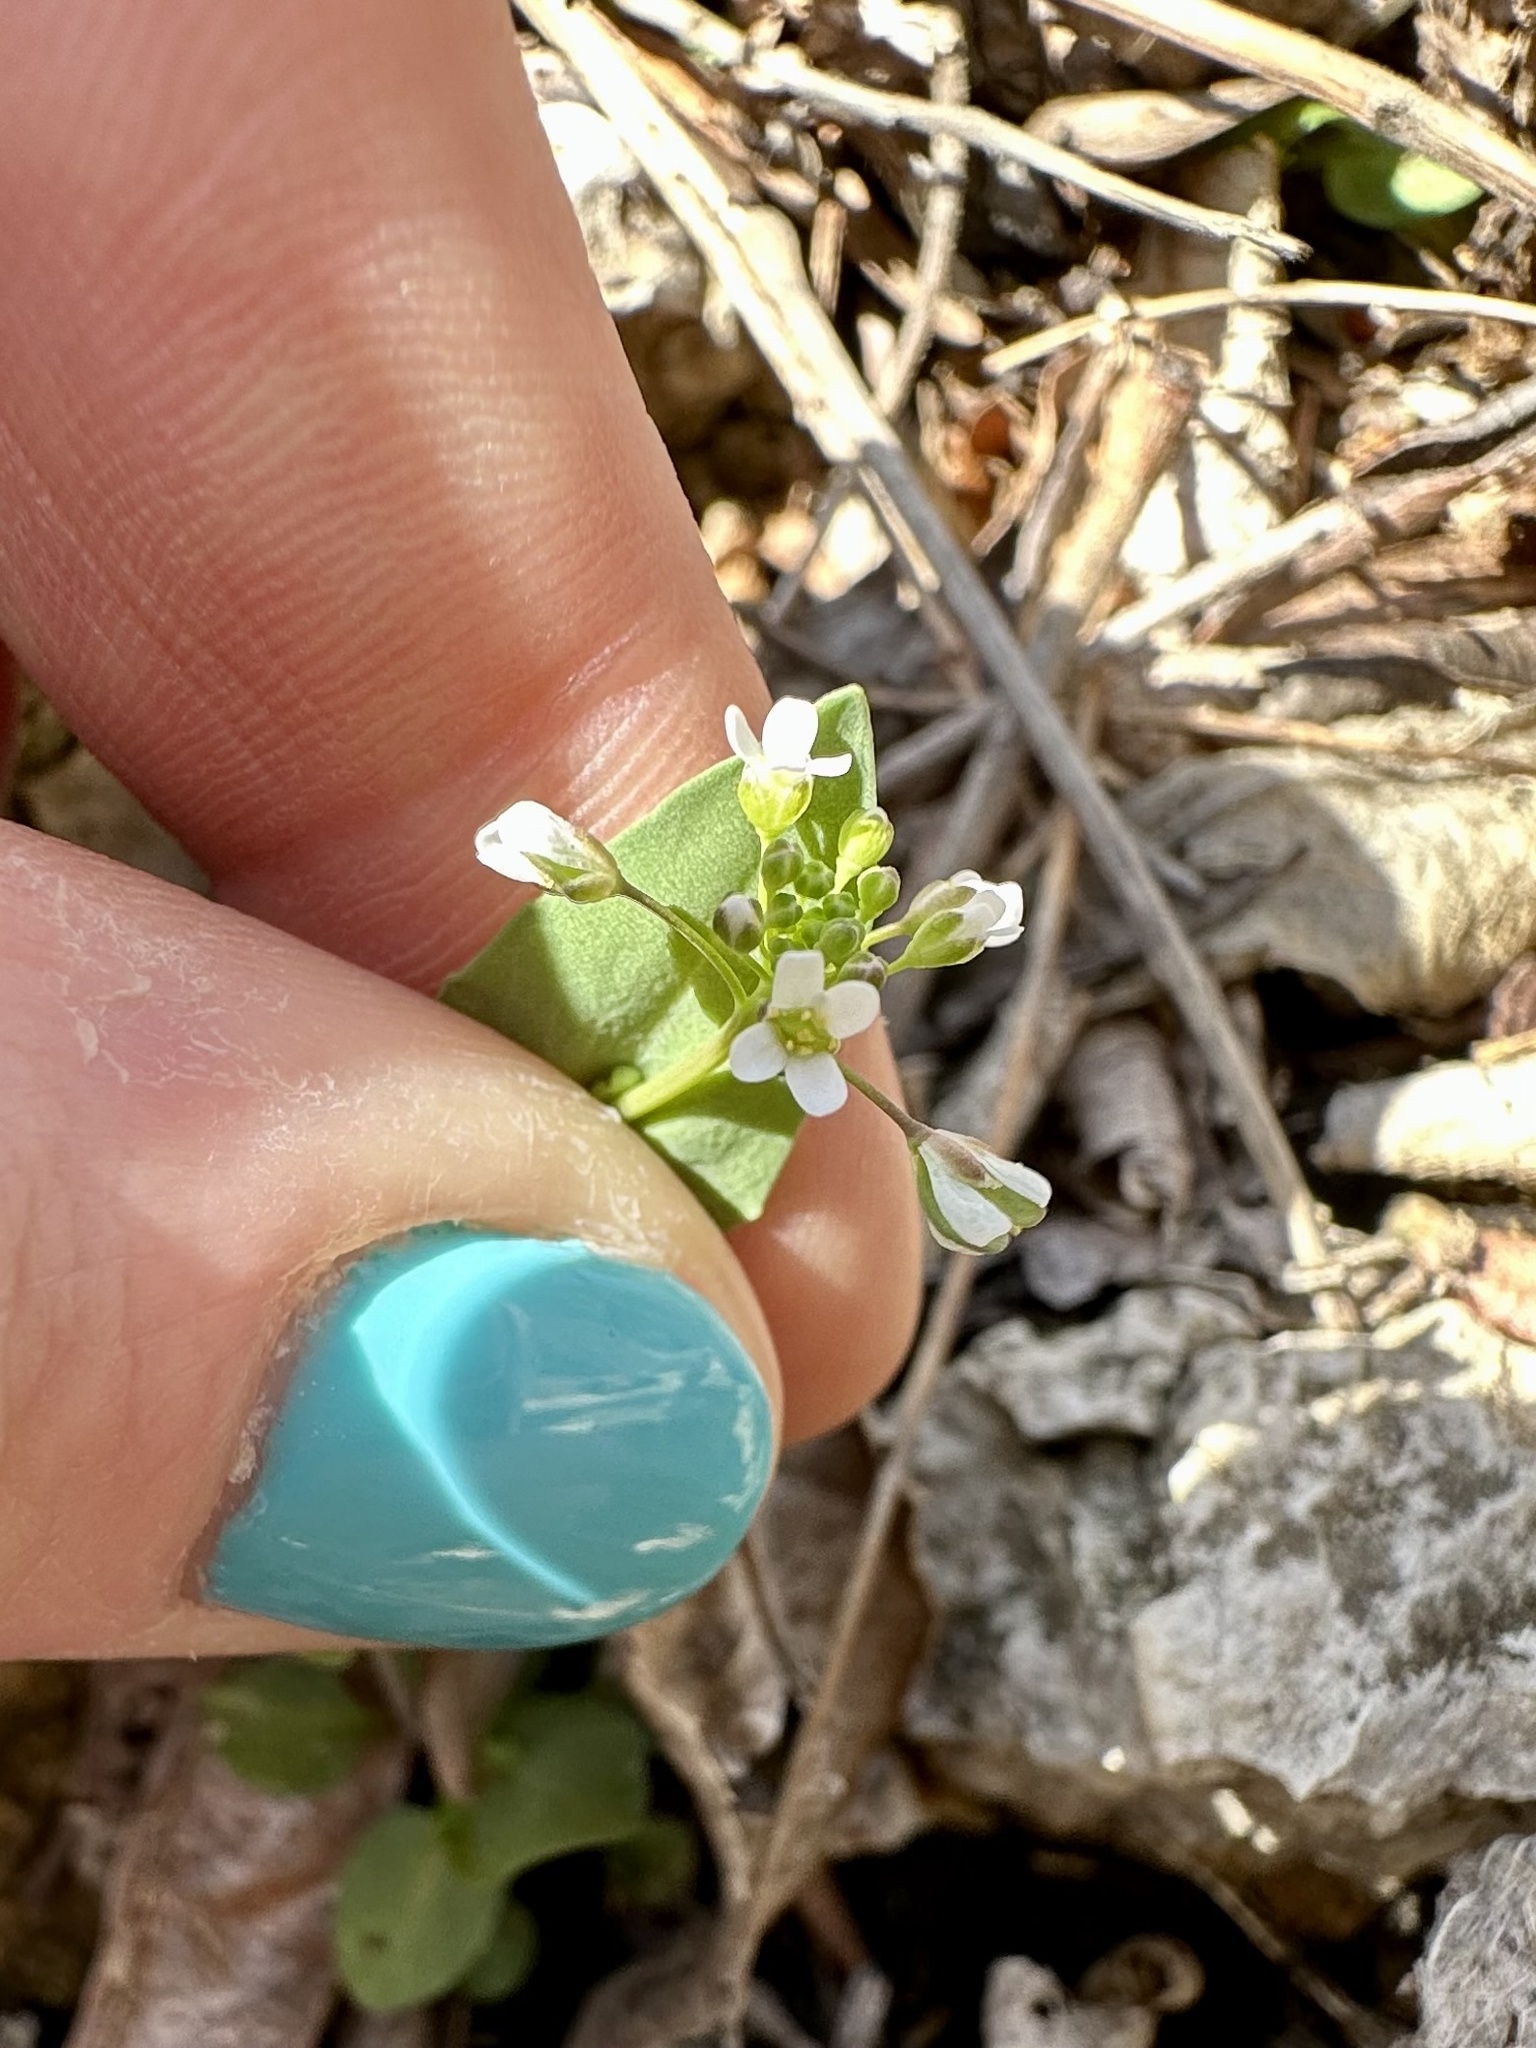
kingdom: Plantae
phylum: Tracheophyta
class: Magnoliopsida
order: Brassicales
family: Brassicaceae
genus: Noccaea
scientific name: Noccaea perfoliata
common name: Perfoliate pennycress
